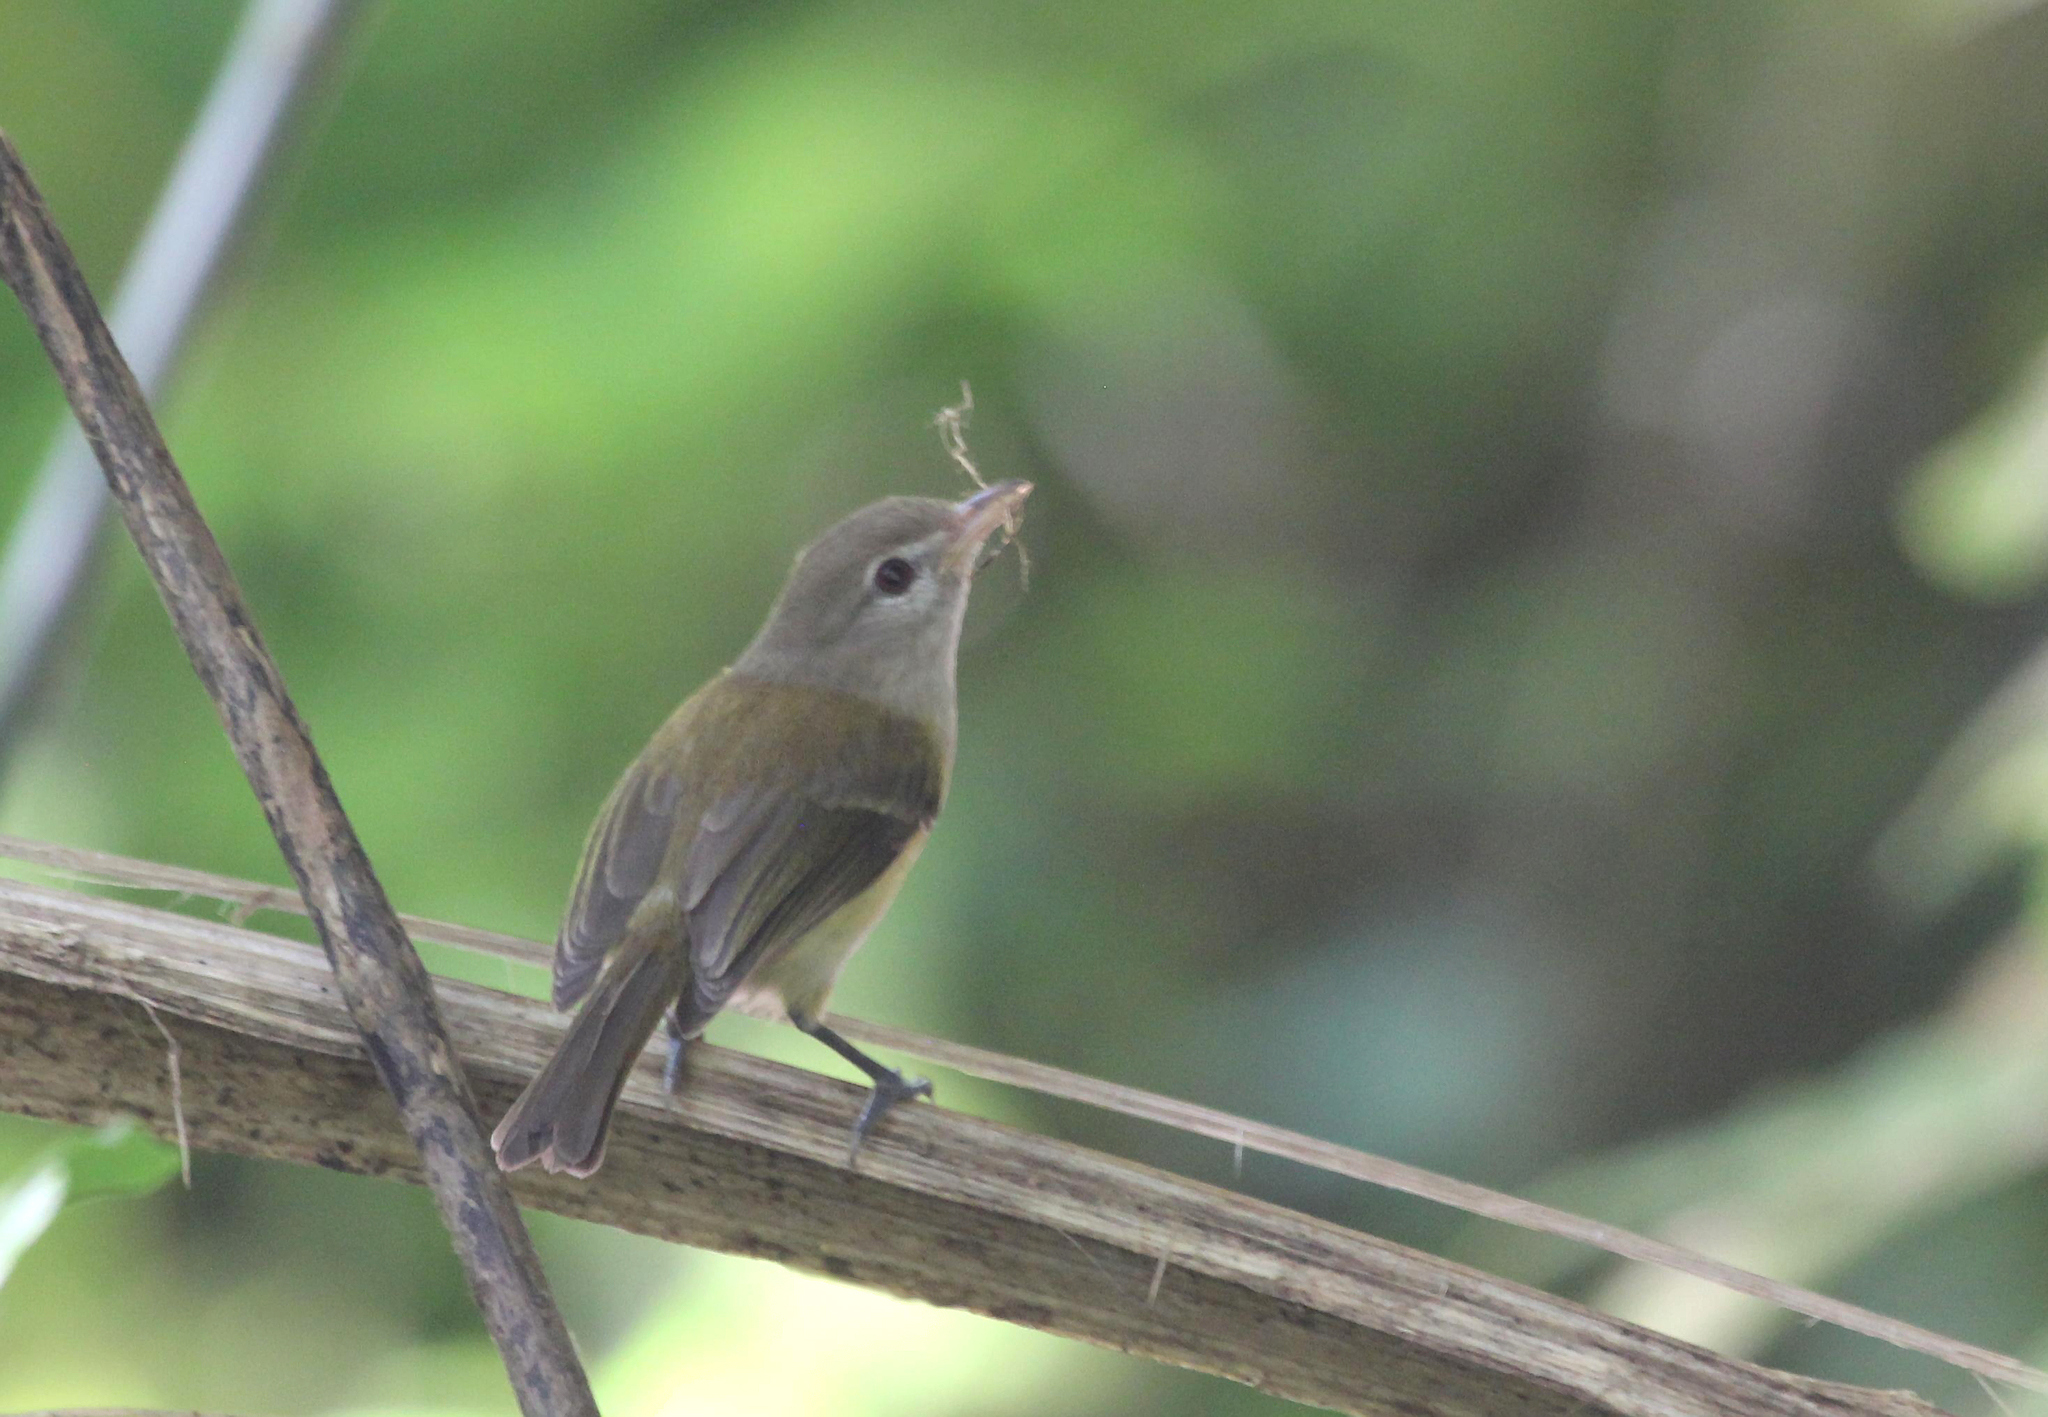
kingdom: Animalia
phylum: Chordata
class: Aves
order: Passeriformes
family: Vireonidae
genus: Vireo
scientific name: Vireo latimeri
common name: Puerto rican vireo
